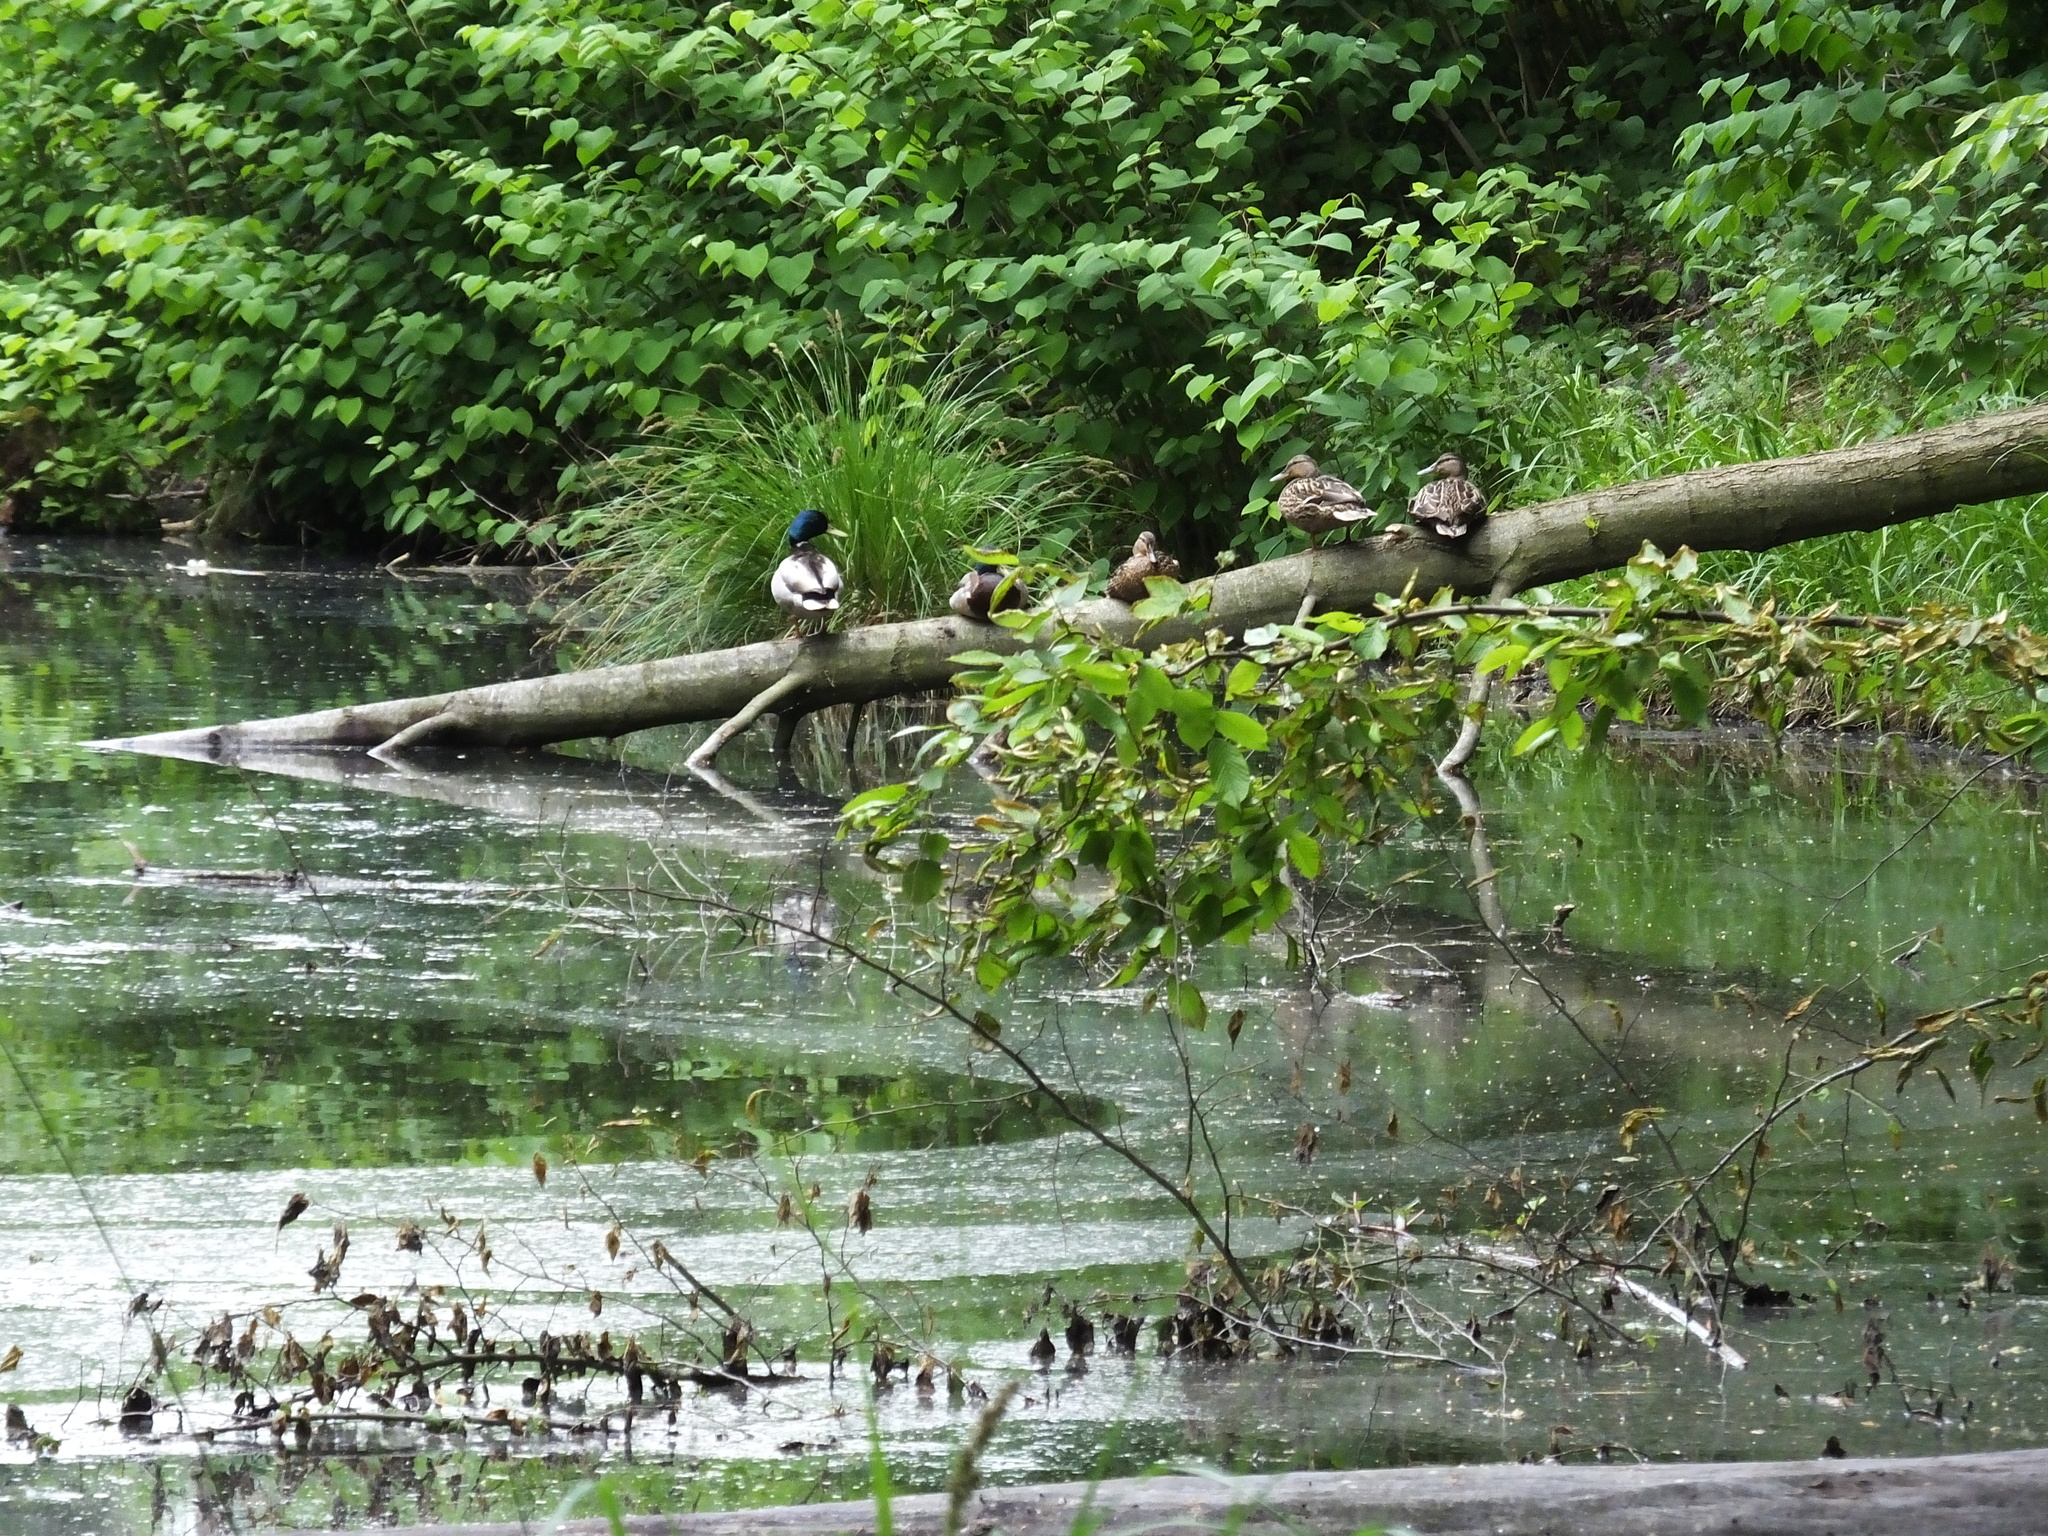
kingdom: Animalia
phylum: Chordata
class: Aves
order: Anseriformes
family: Anatidae
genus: Anas
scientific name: Anas platyrhynchos
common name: Mallard
